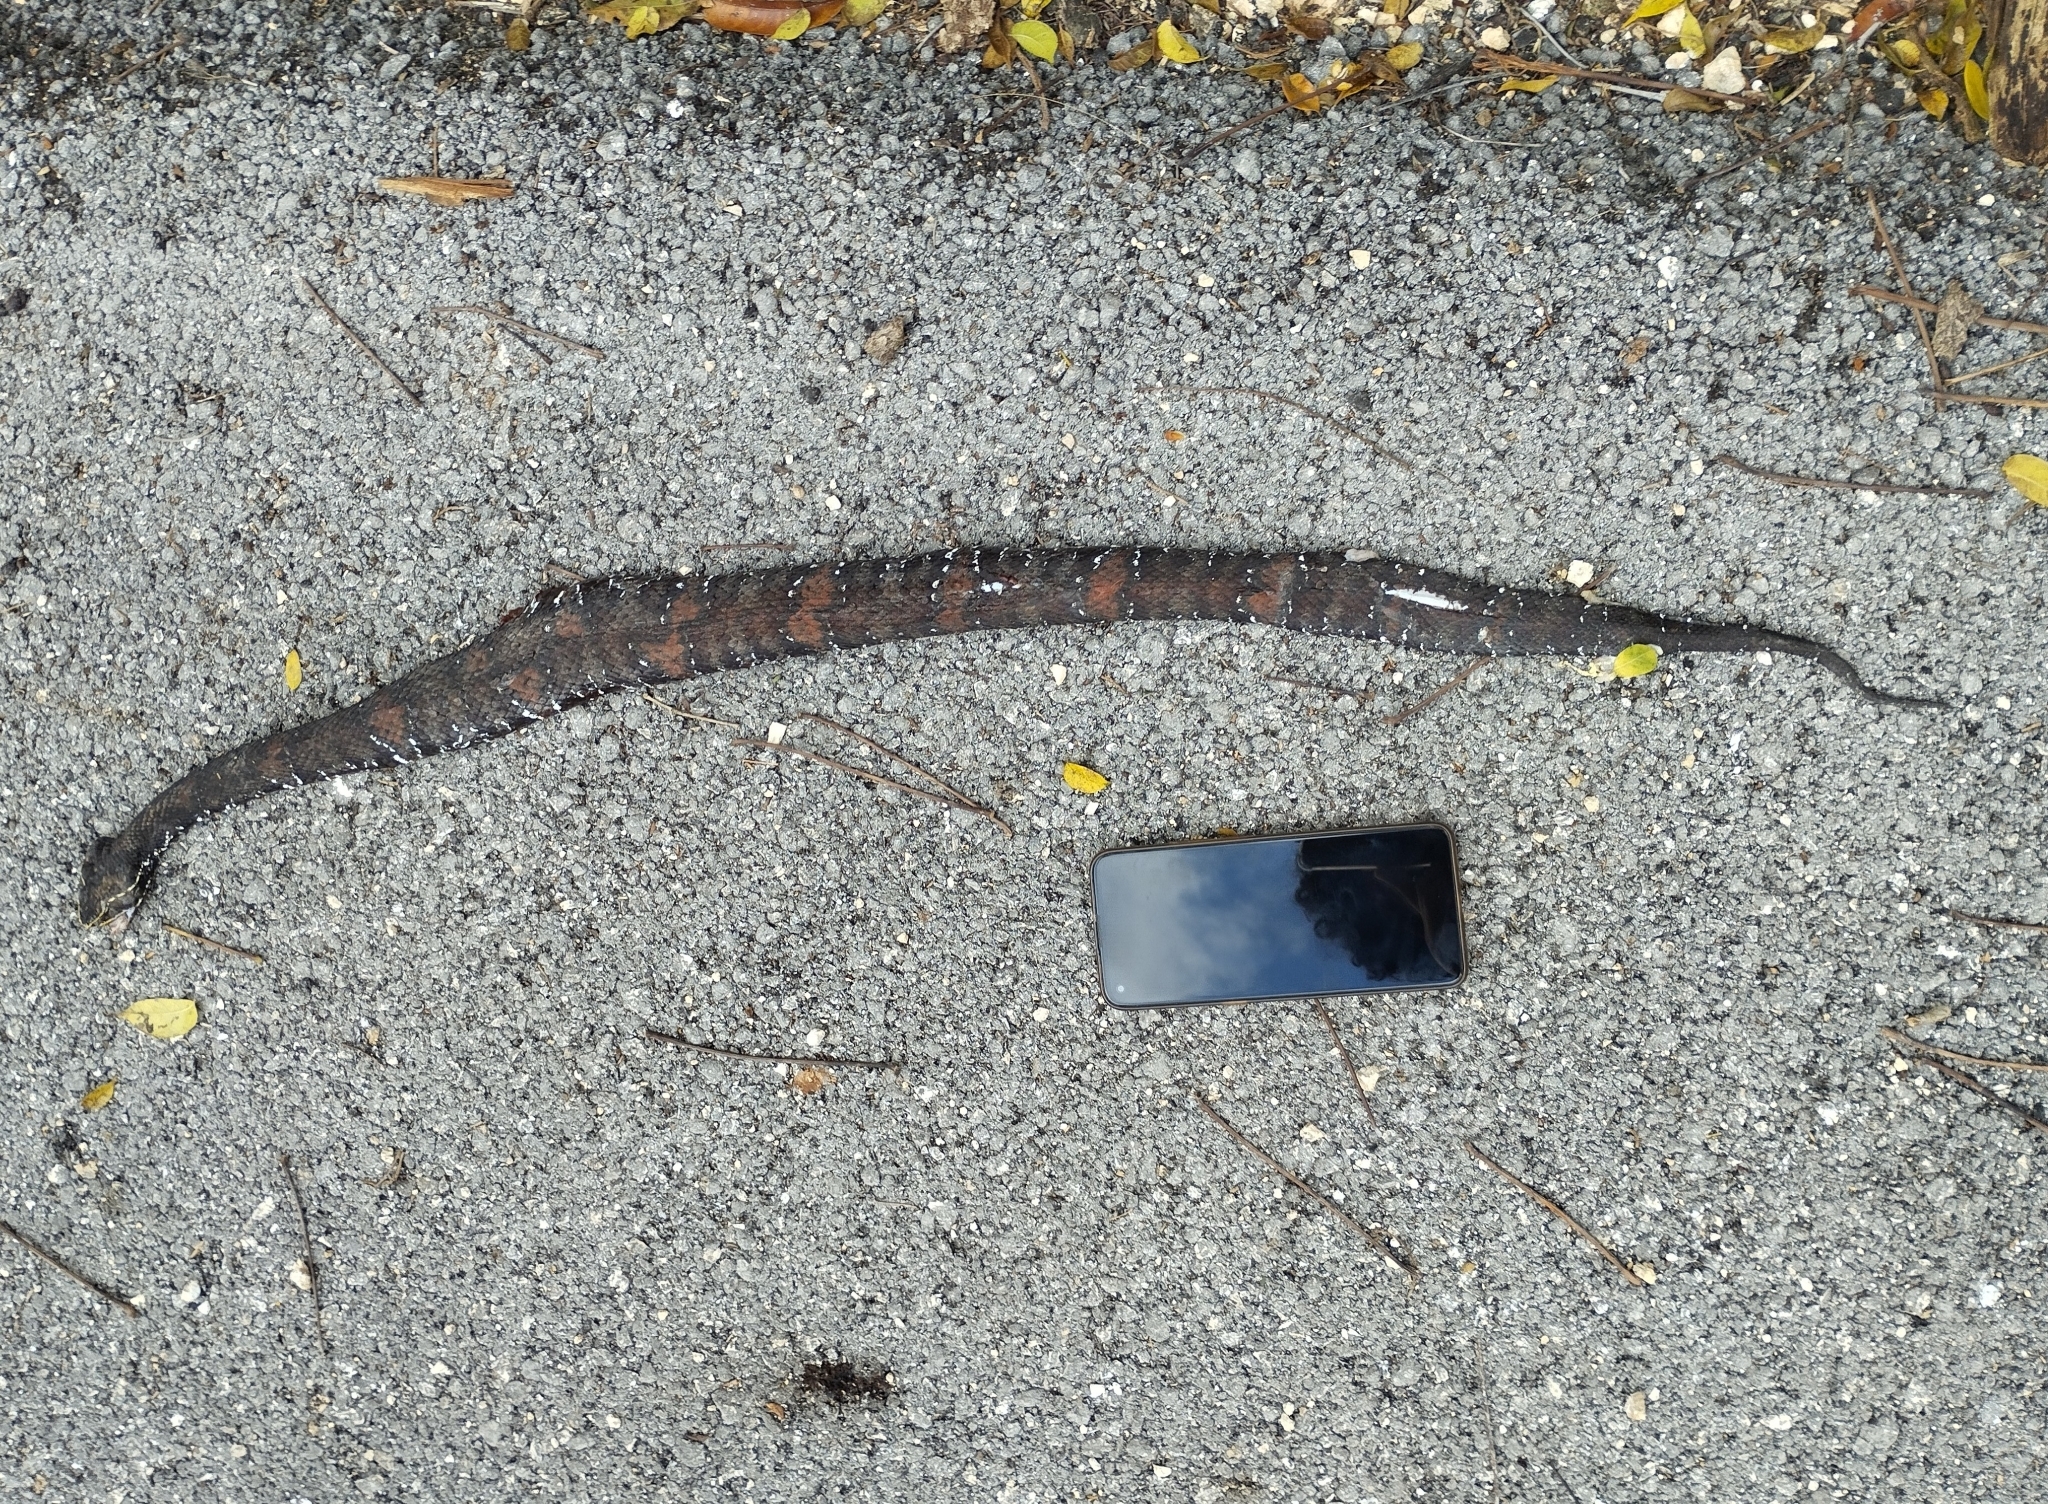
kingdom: Animalia
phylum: Chordata
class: Squamata
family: Viperidae
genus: Agkistrodon
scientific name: Agkistrodon russeolus
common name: Cantil
